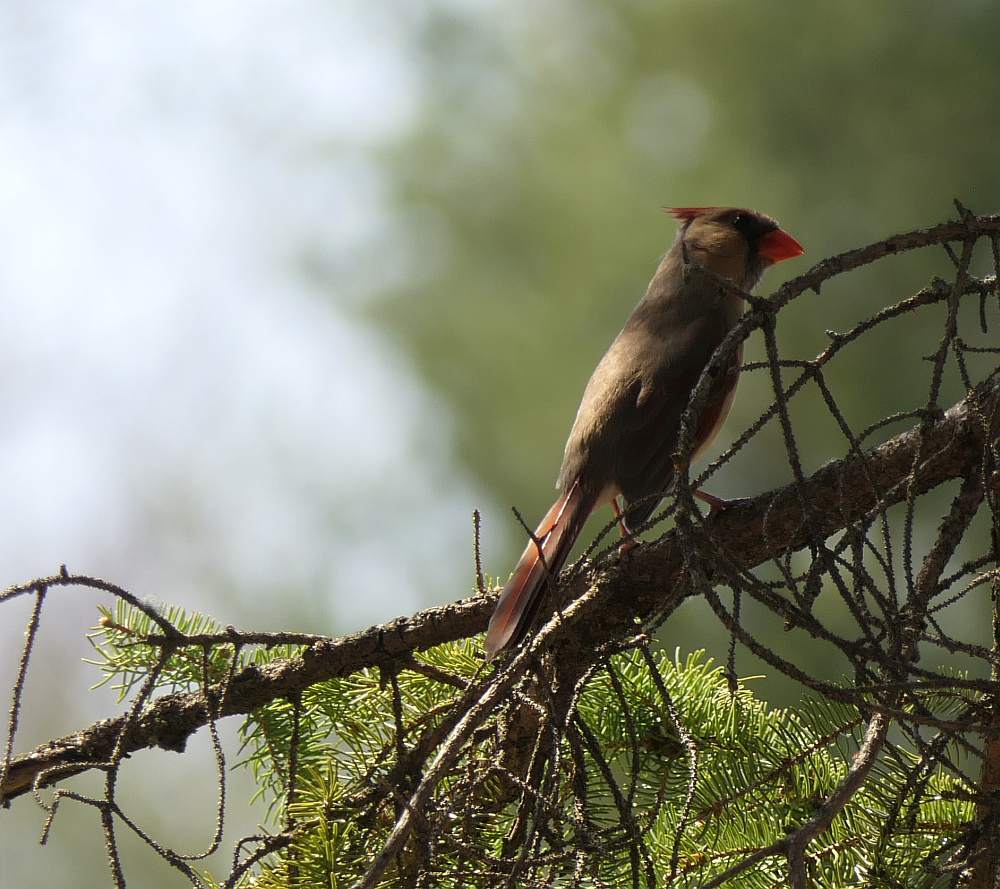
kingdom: Animalia
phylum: Chordata
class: Aves
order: Passeriformes
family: Cardinalidae
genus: Cardinalis
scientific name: Cardinalis cardinalis
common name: Northern cardinal
